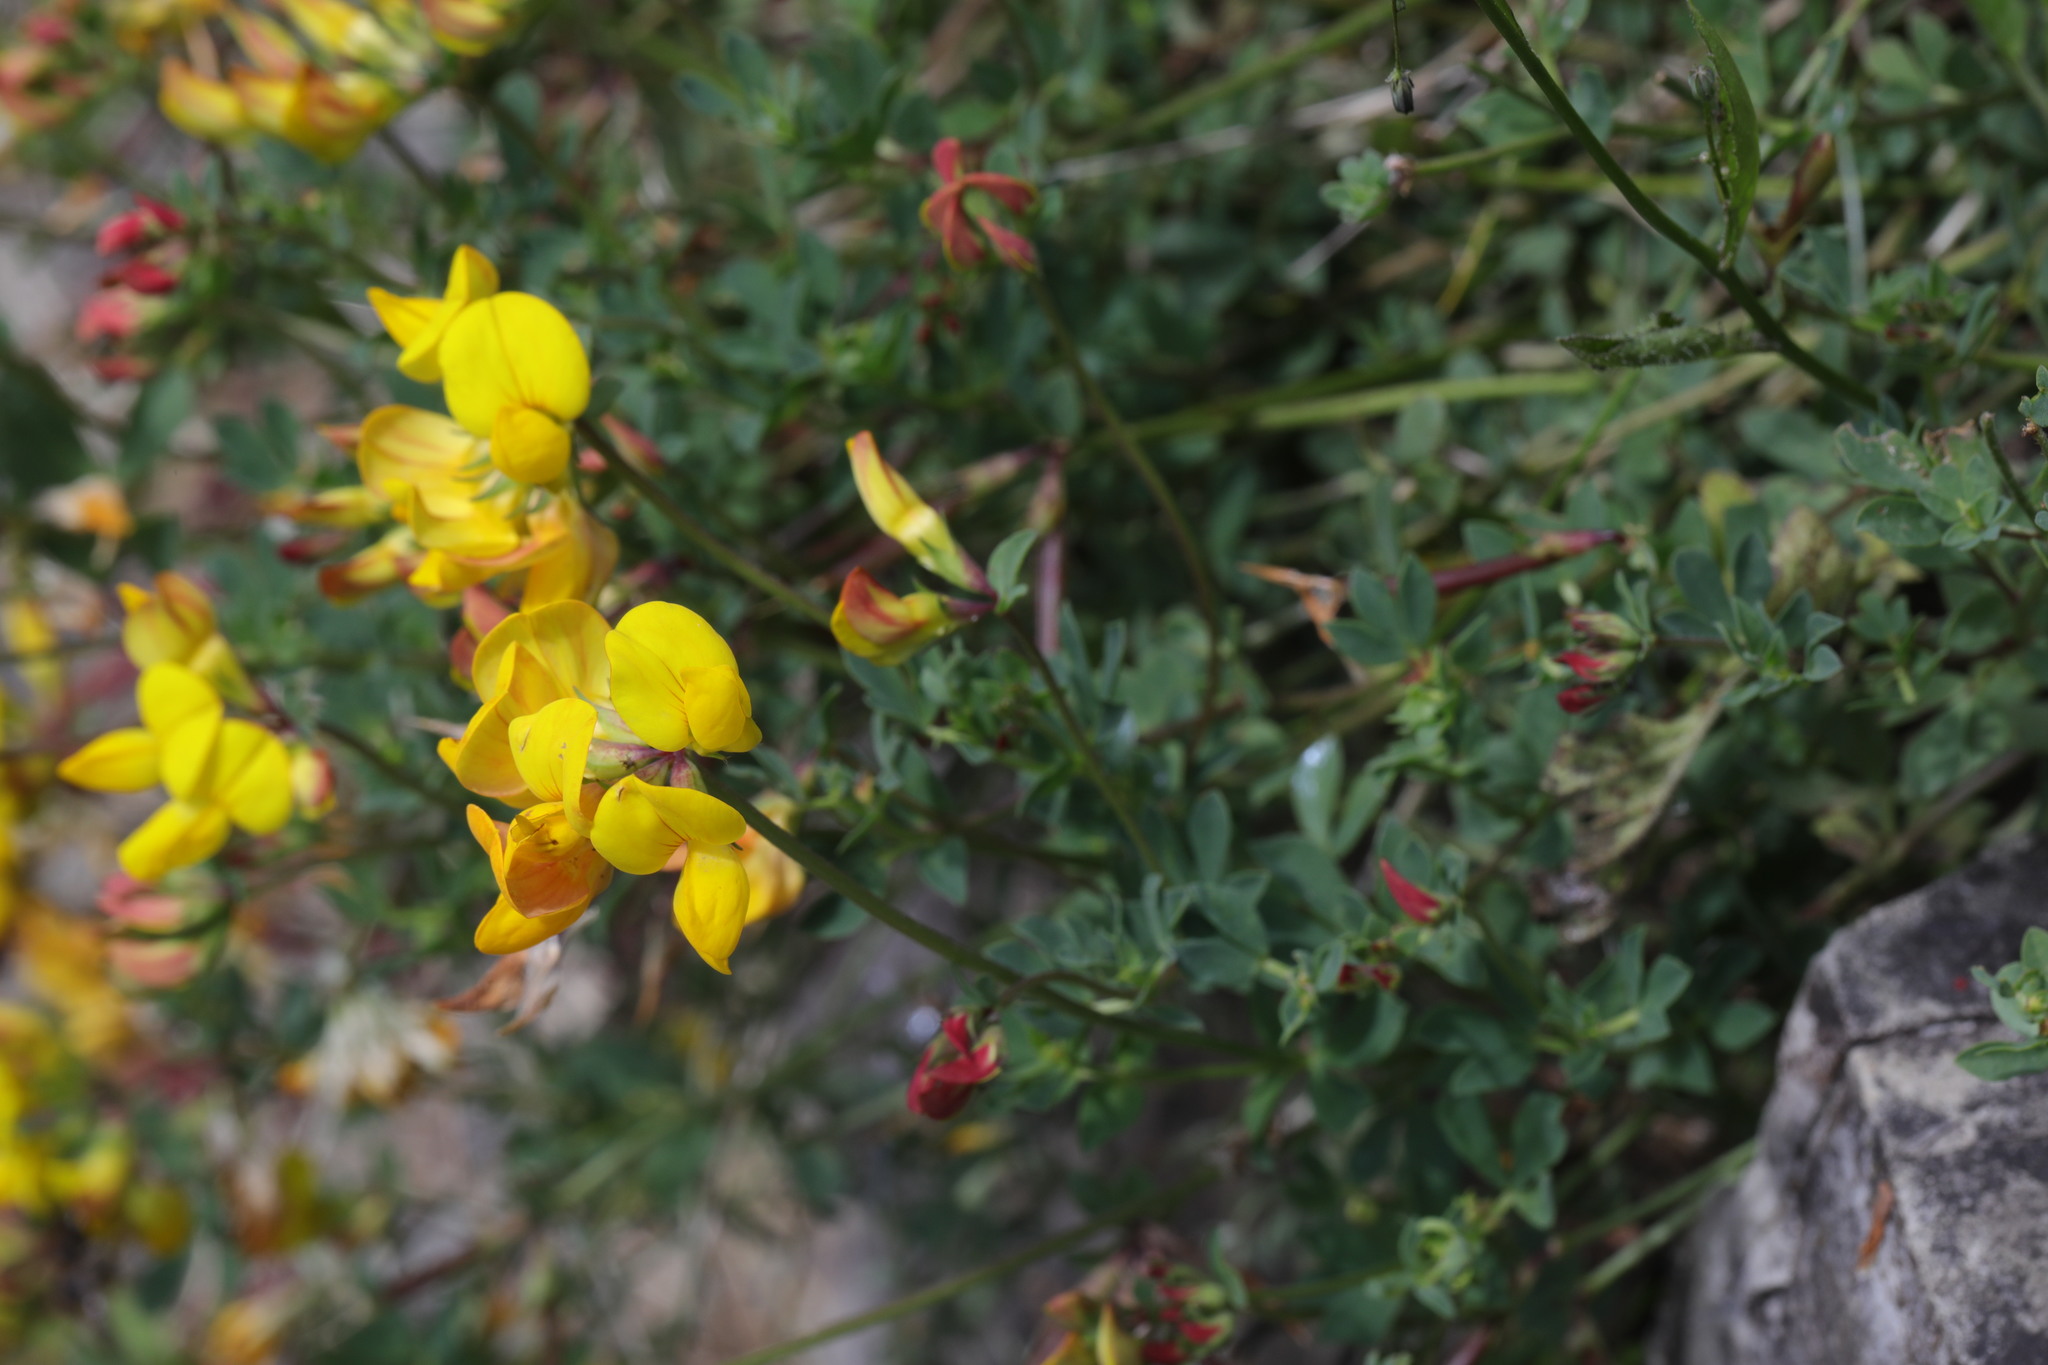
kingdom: Plantae
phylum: Tracheophyta
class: Magnoliopsida
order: Fabales
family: Fabaceae
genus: Lotus
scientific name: Lotus corniculatus
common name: Common bird's-foot-trefoil
